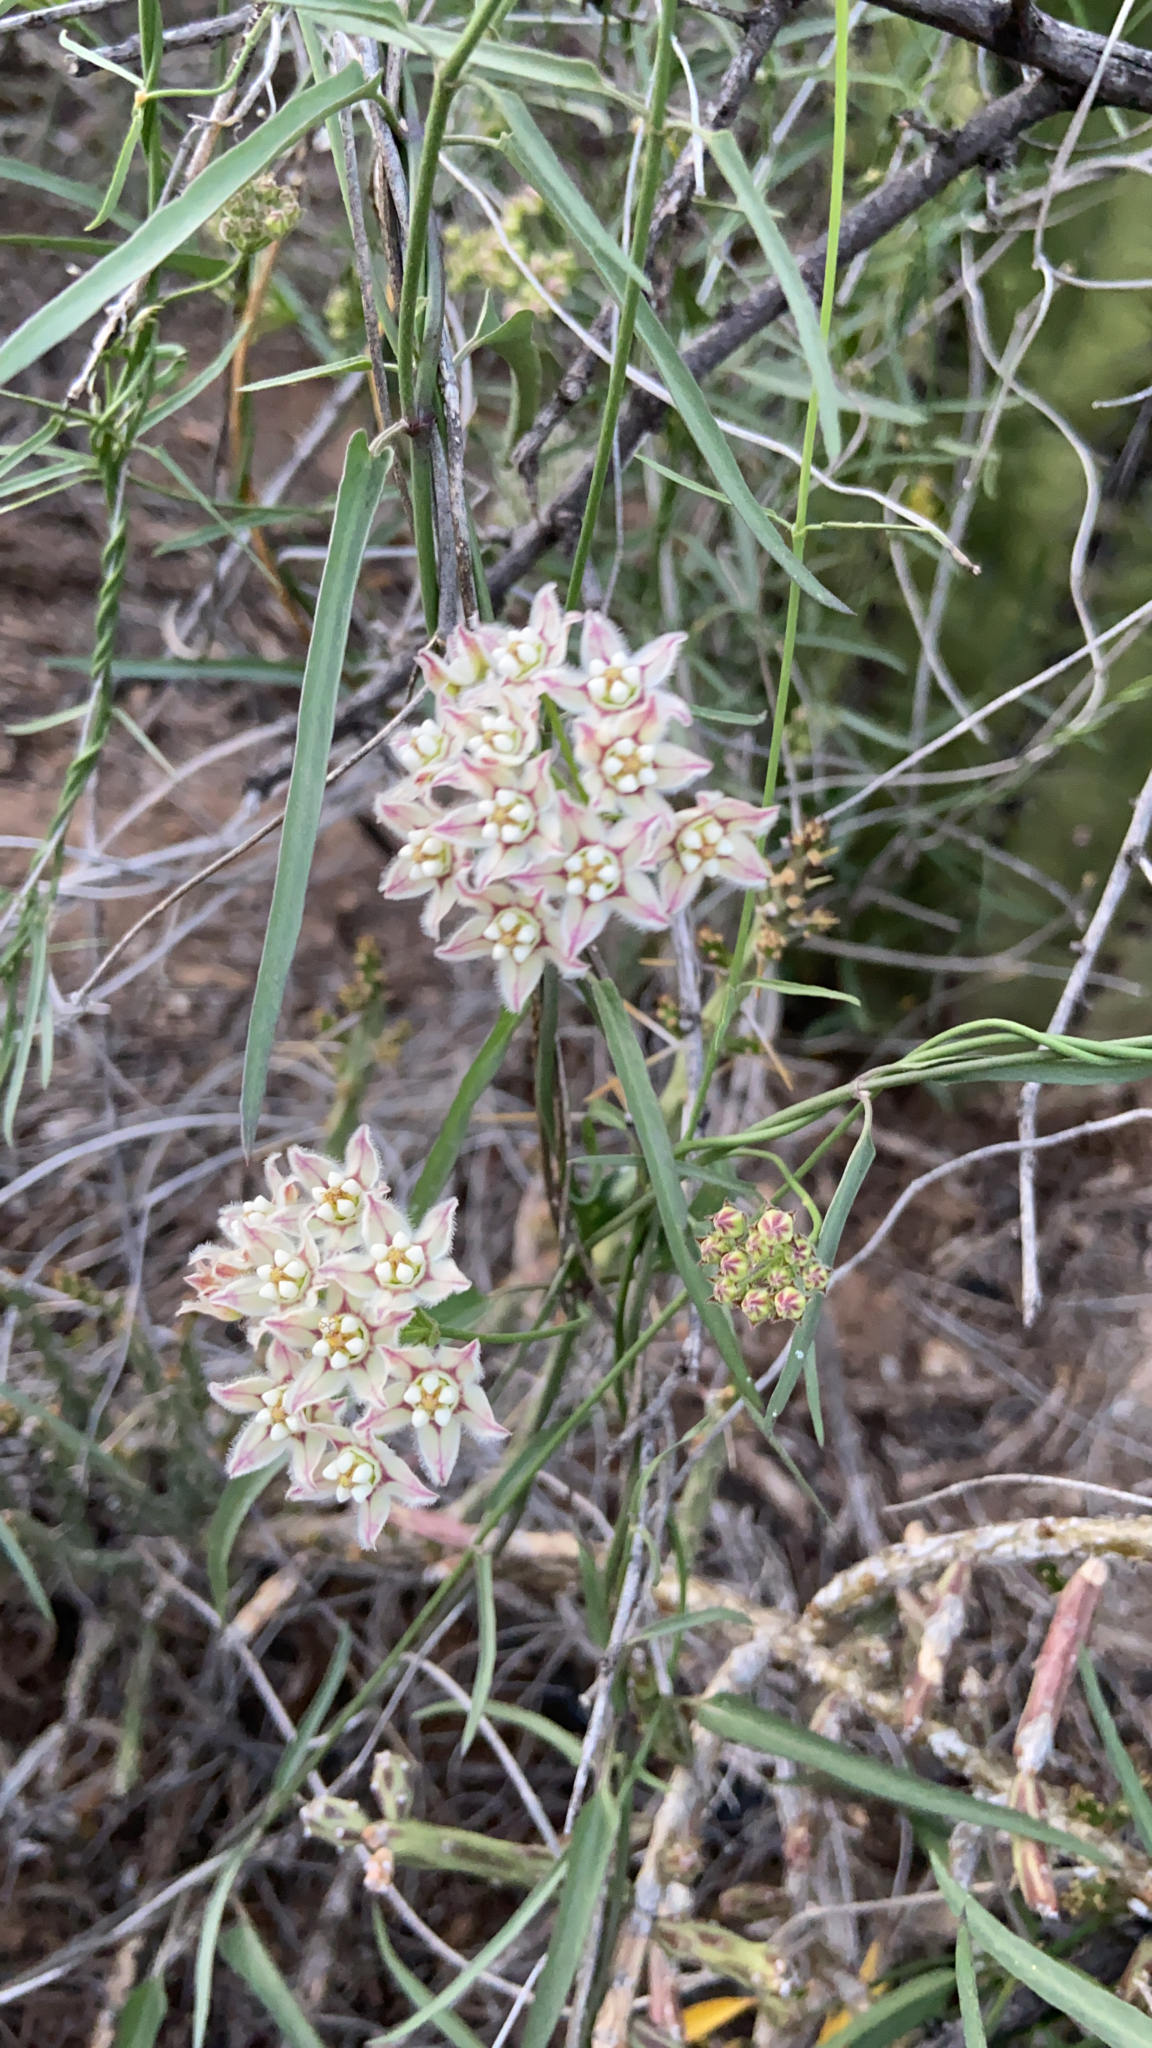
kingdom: Plantae
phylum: Tracheophyta
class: Magnoliopsida
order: Gentianales
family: Apocynaceae
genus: Funastrum
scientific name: Funastrum heterophyllum
